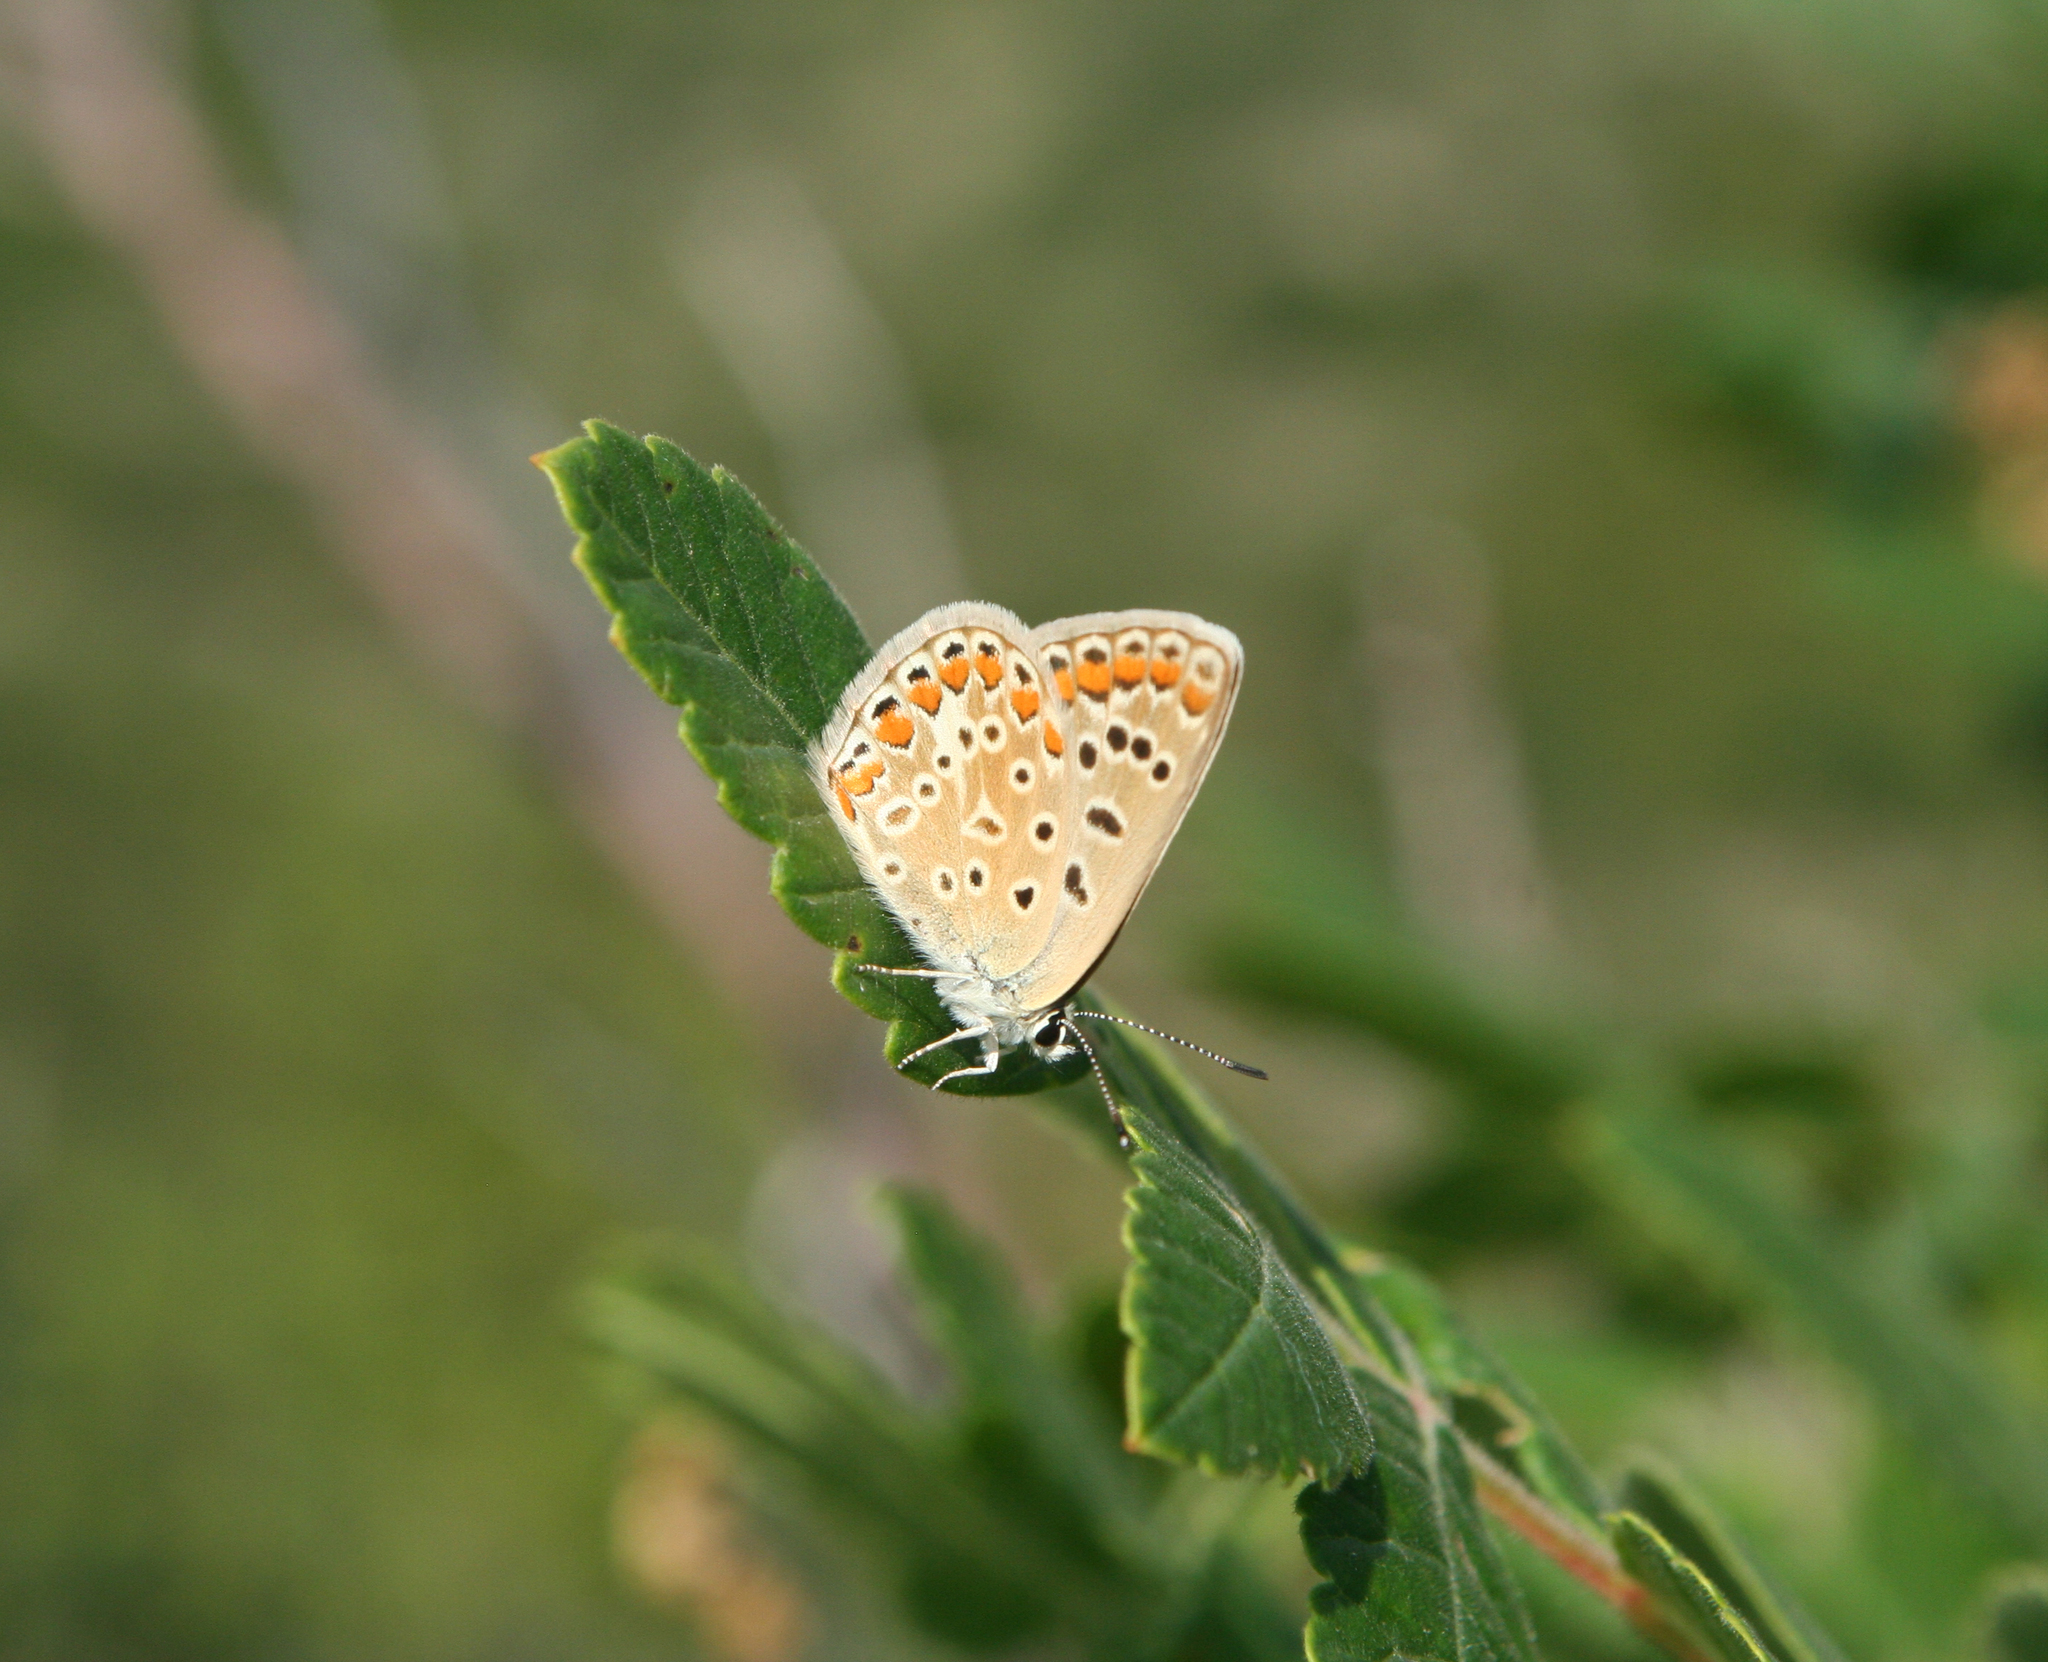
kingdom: Animalia
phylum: Arthropoda
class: Insecta
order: Lepidoptera
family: Lycaenidae
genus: Polyommatus
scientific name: Polyommatus icarus
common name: Common blue
